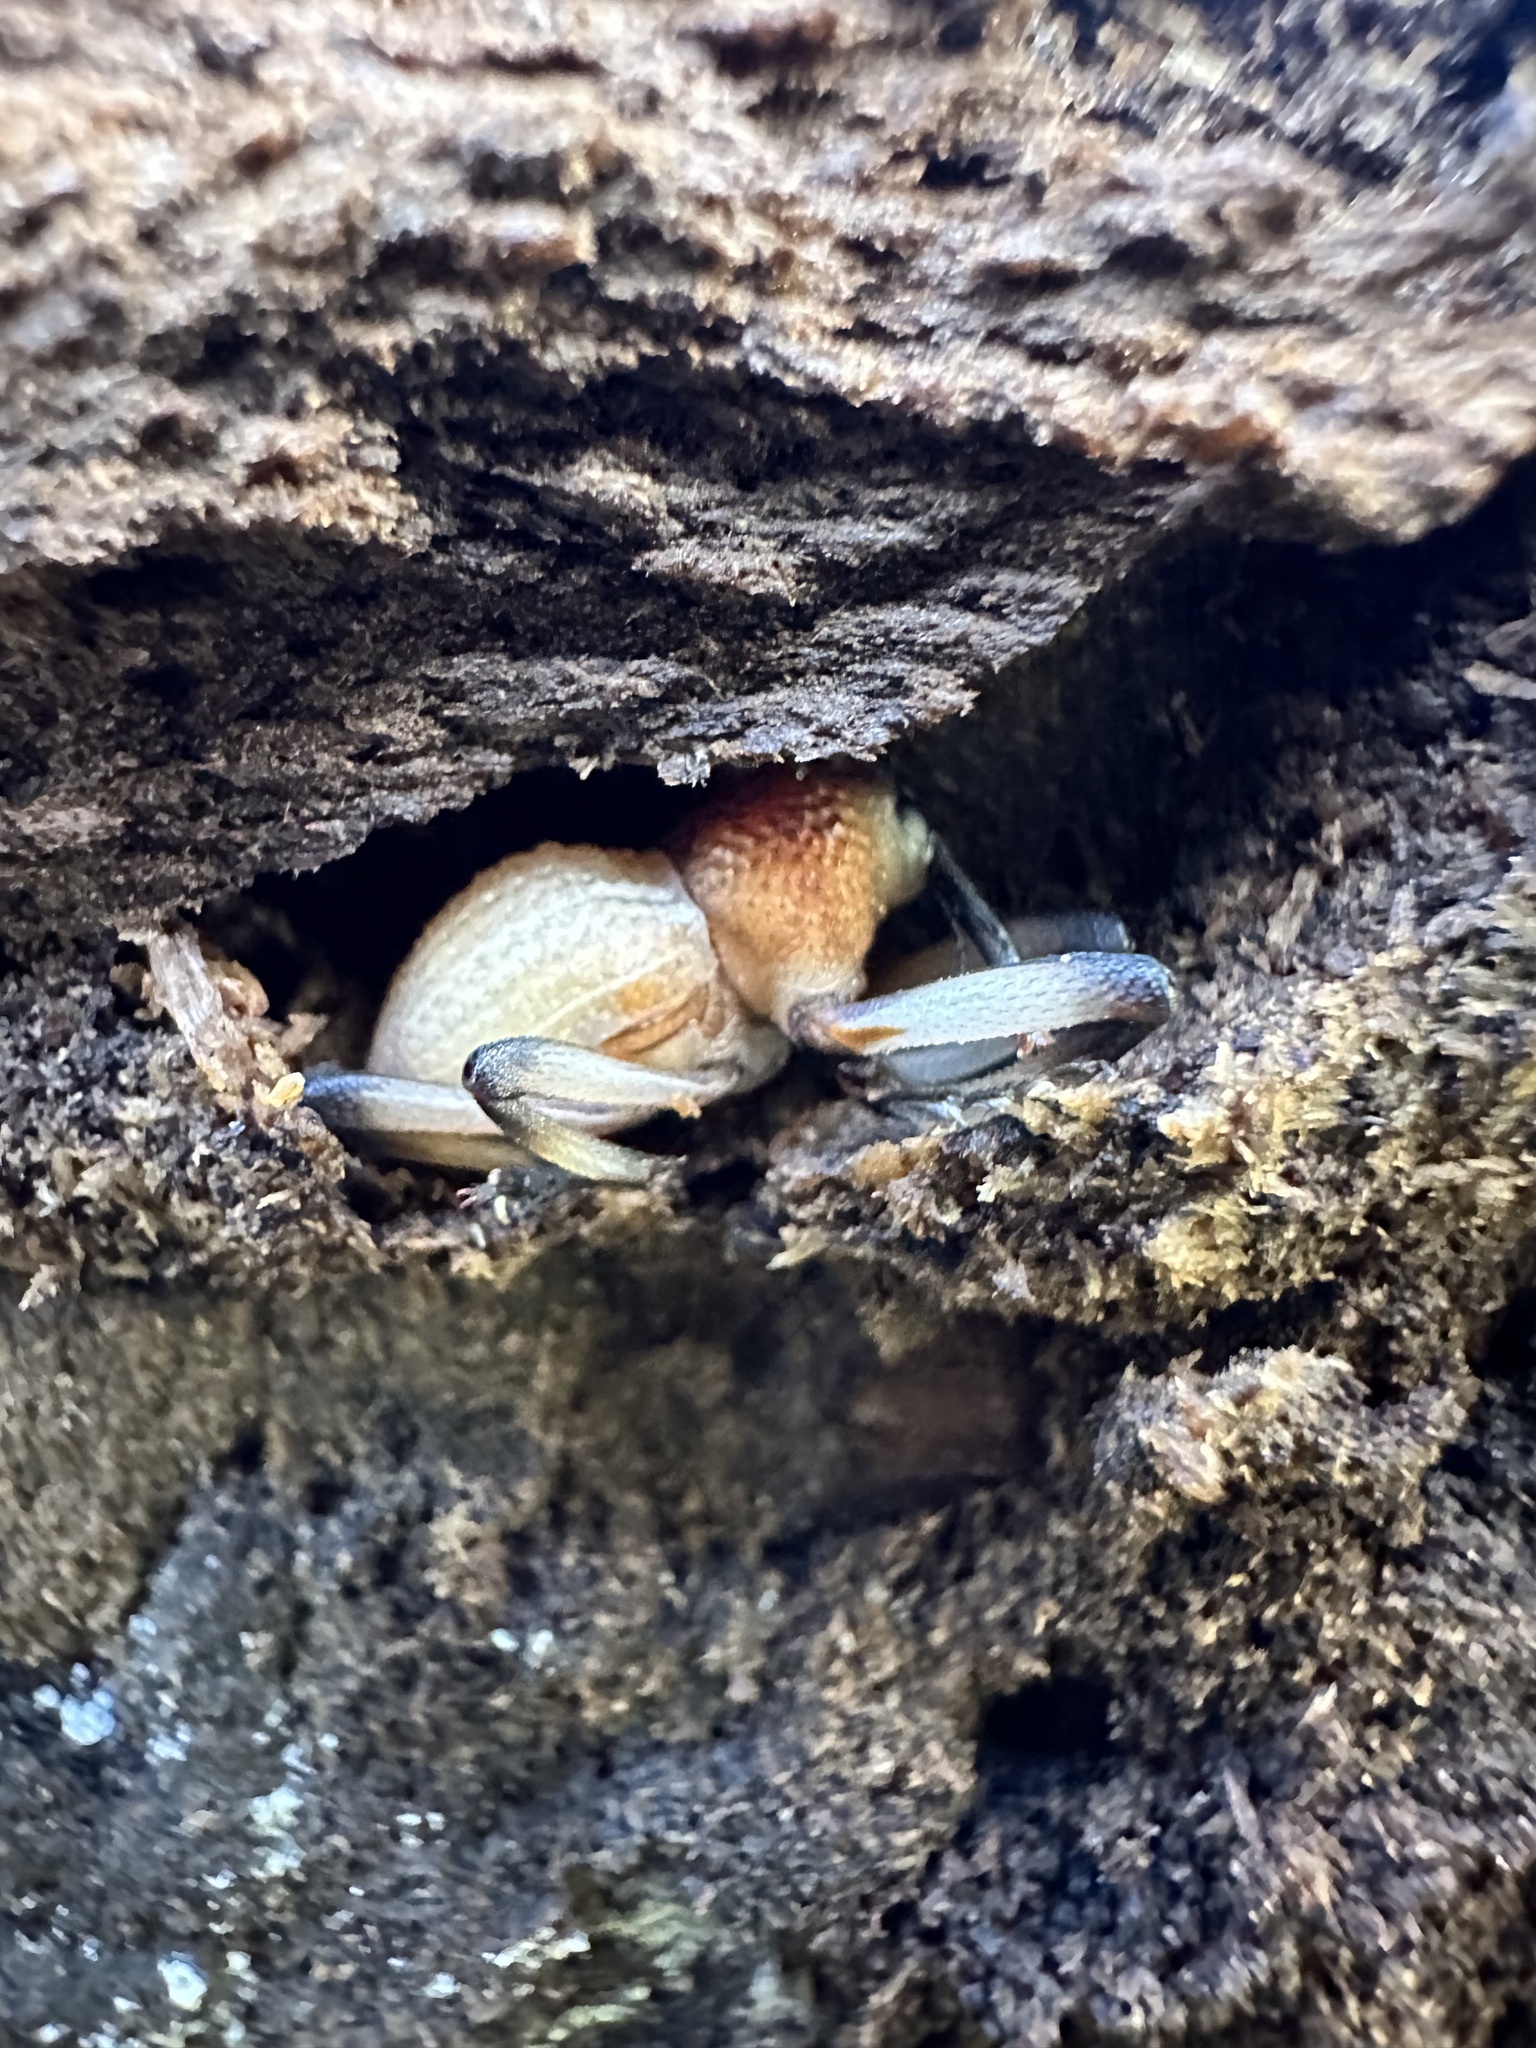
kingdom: Animalia
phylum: Arthropoda
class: Insecta
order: Coleoptera
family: Curculionidae
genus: Rhyephenes
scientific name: Rhyephenes humeralis
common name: Araè±ita chilena del pino
